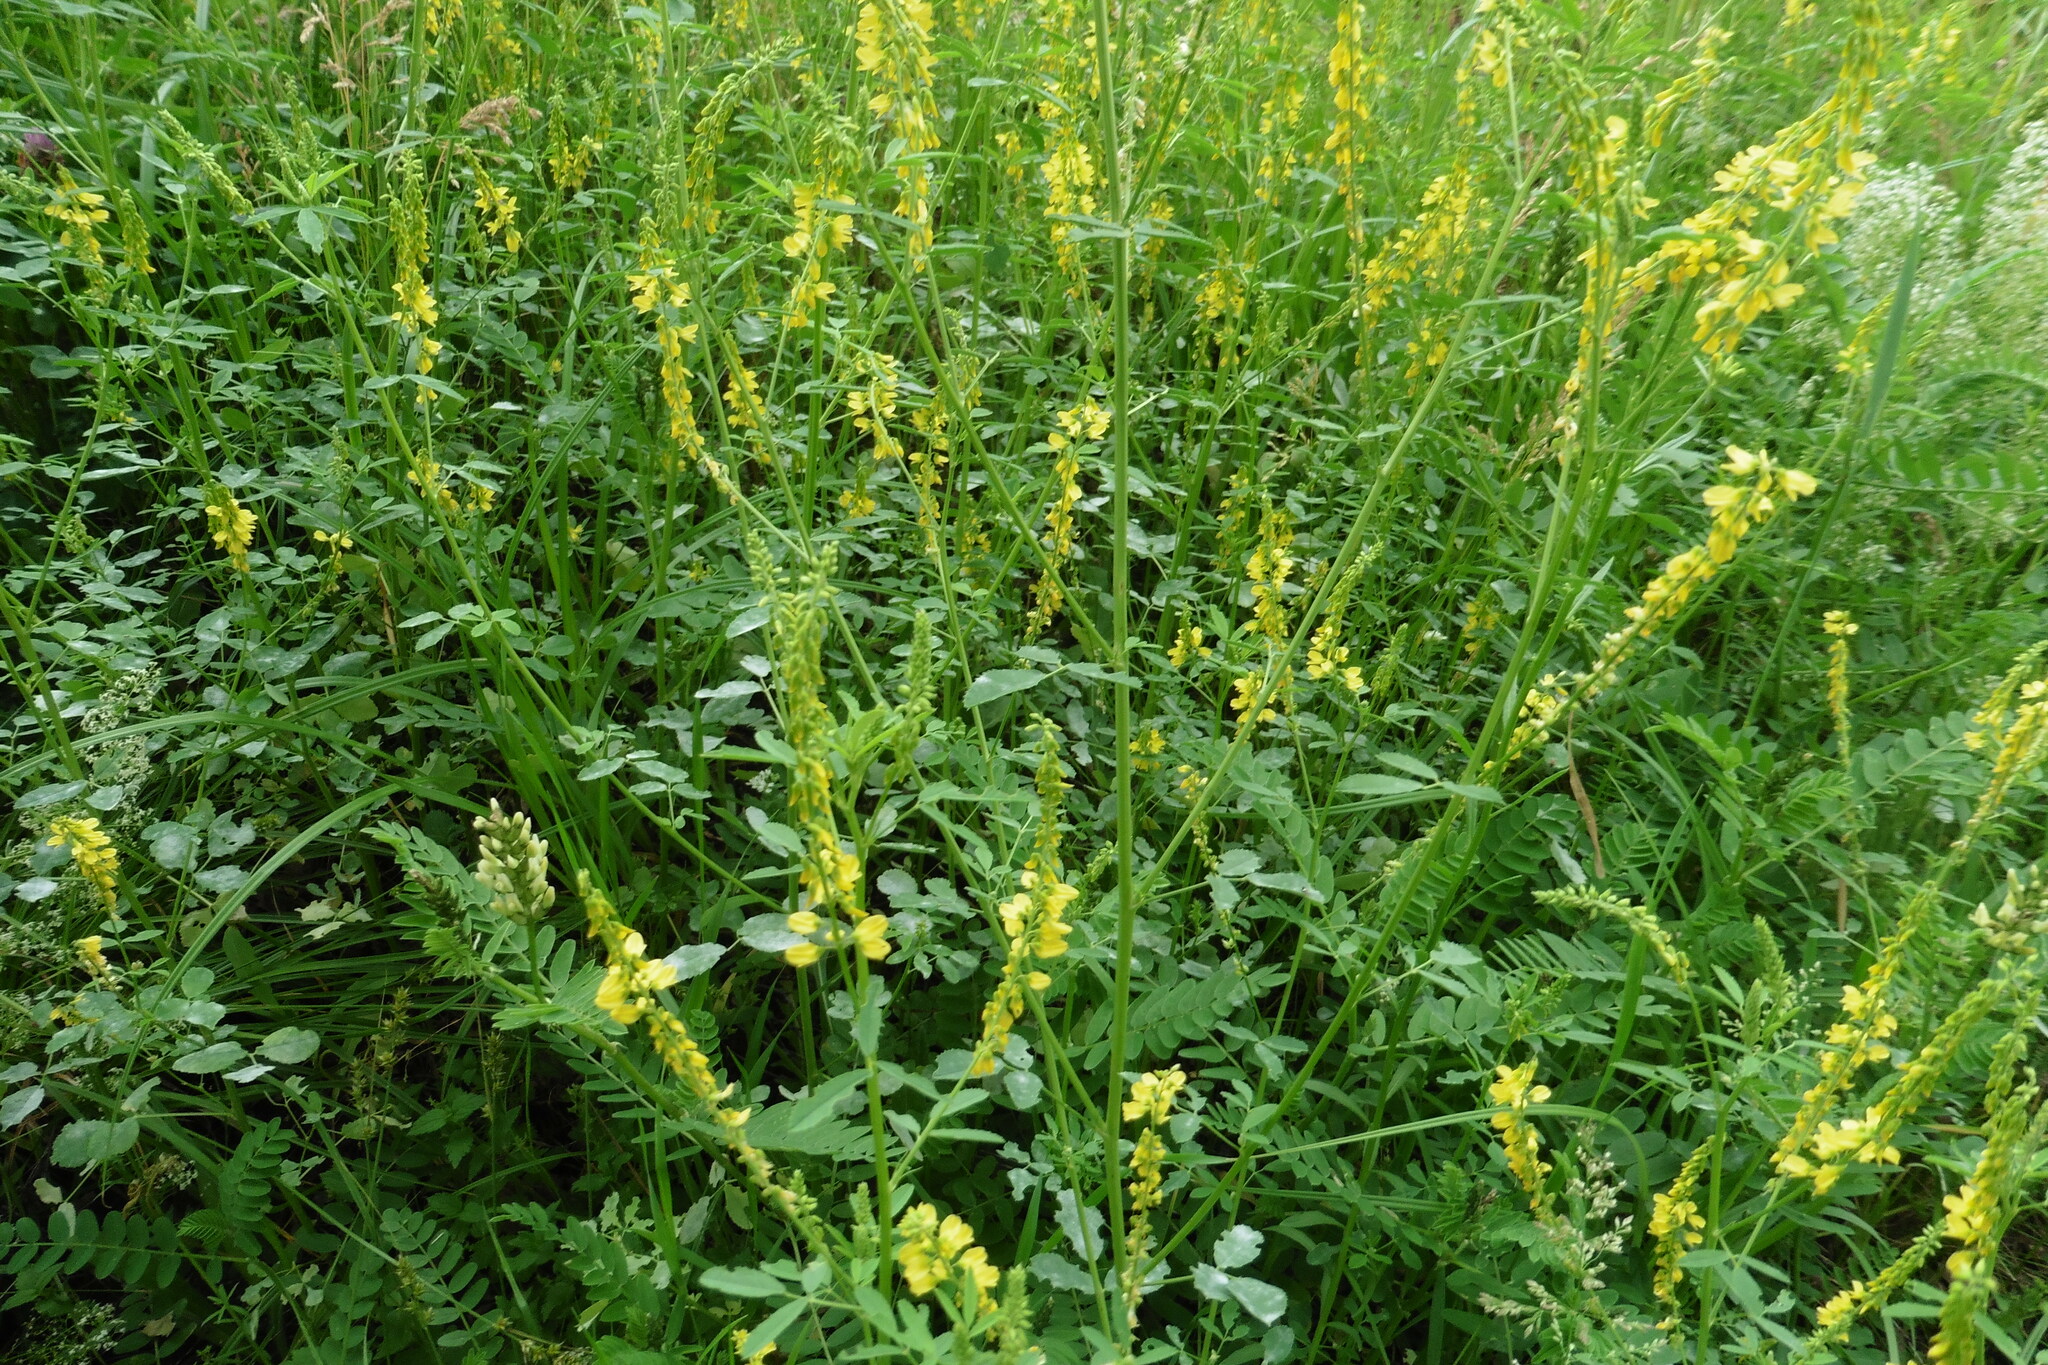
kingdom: Plantae
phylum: Tracheophyta
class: Magnoliopsida
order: Fabales
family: Fabaceae
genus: Melilotus
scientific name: Melilotus officinalis
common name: Sweetclover
